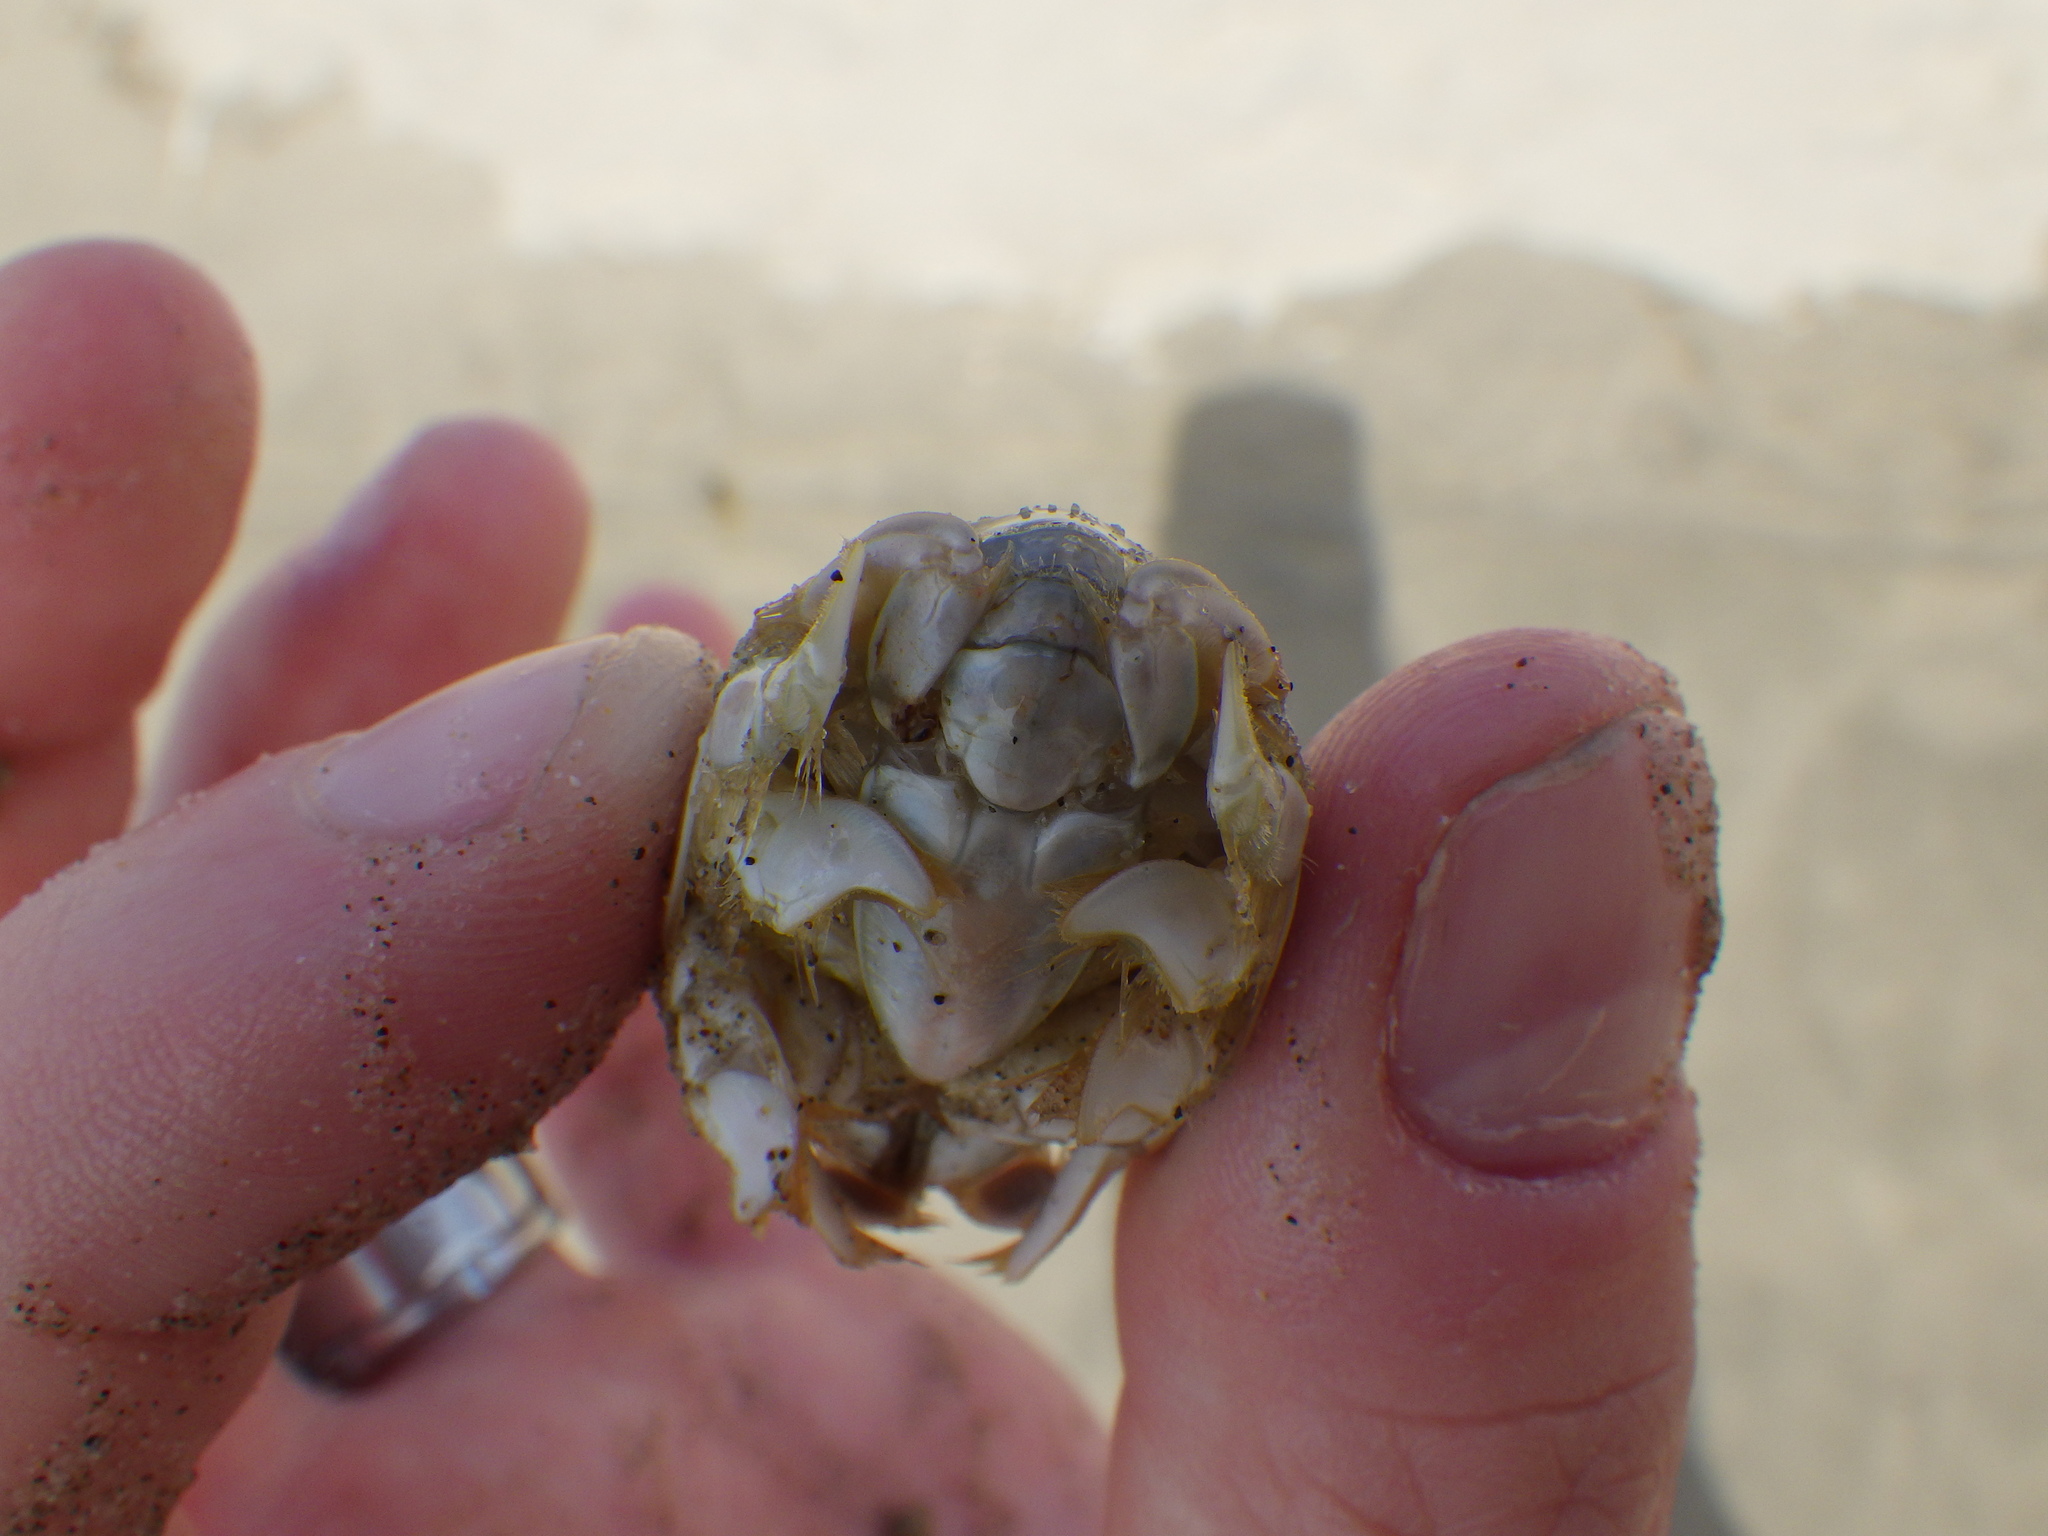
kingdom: Animalia
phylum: Arthropoda
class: Malacostraca
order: Decapoda
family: Hippidae
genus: Emerita
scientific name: Emerita analoga
